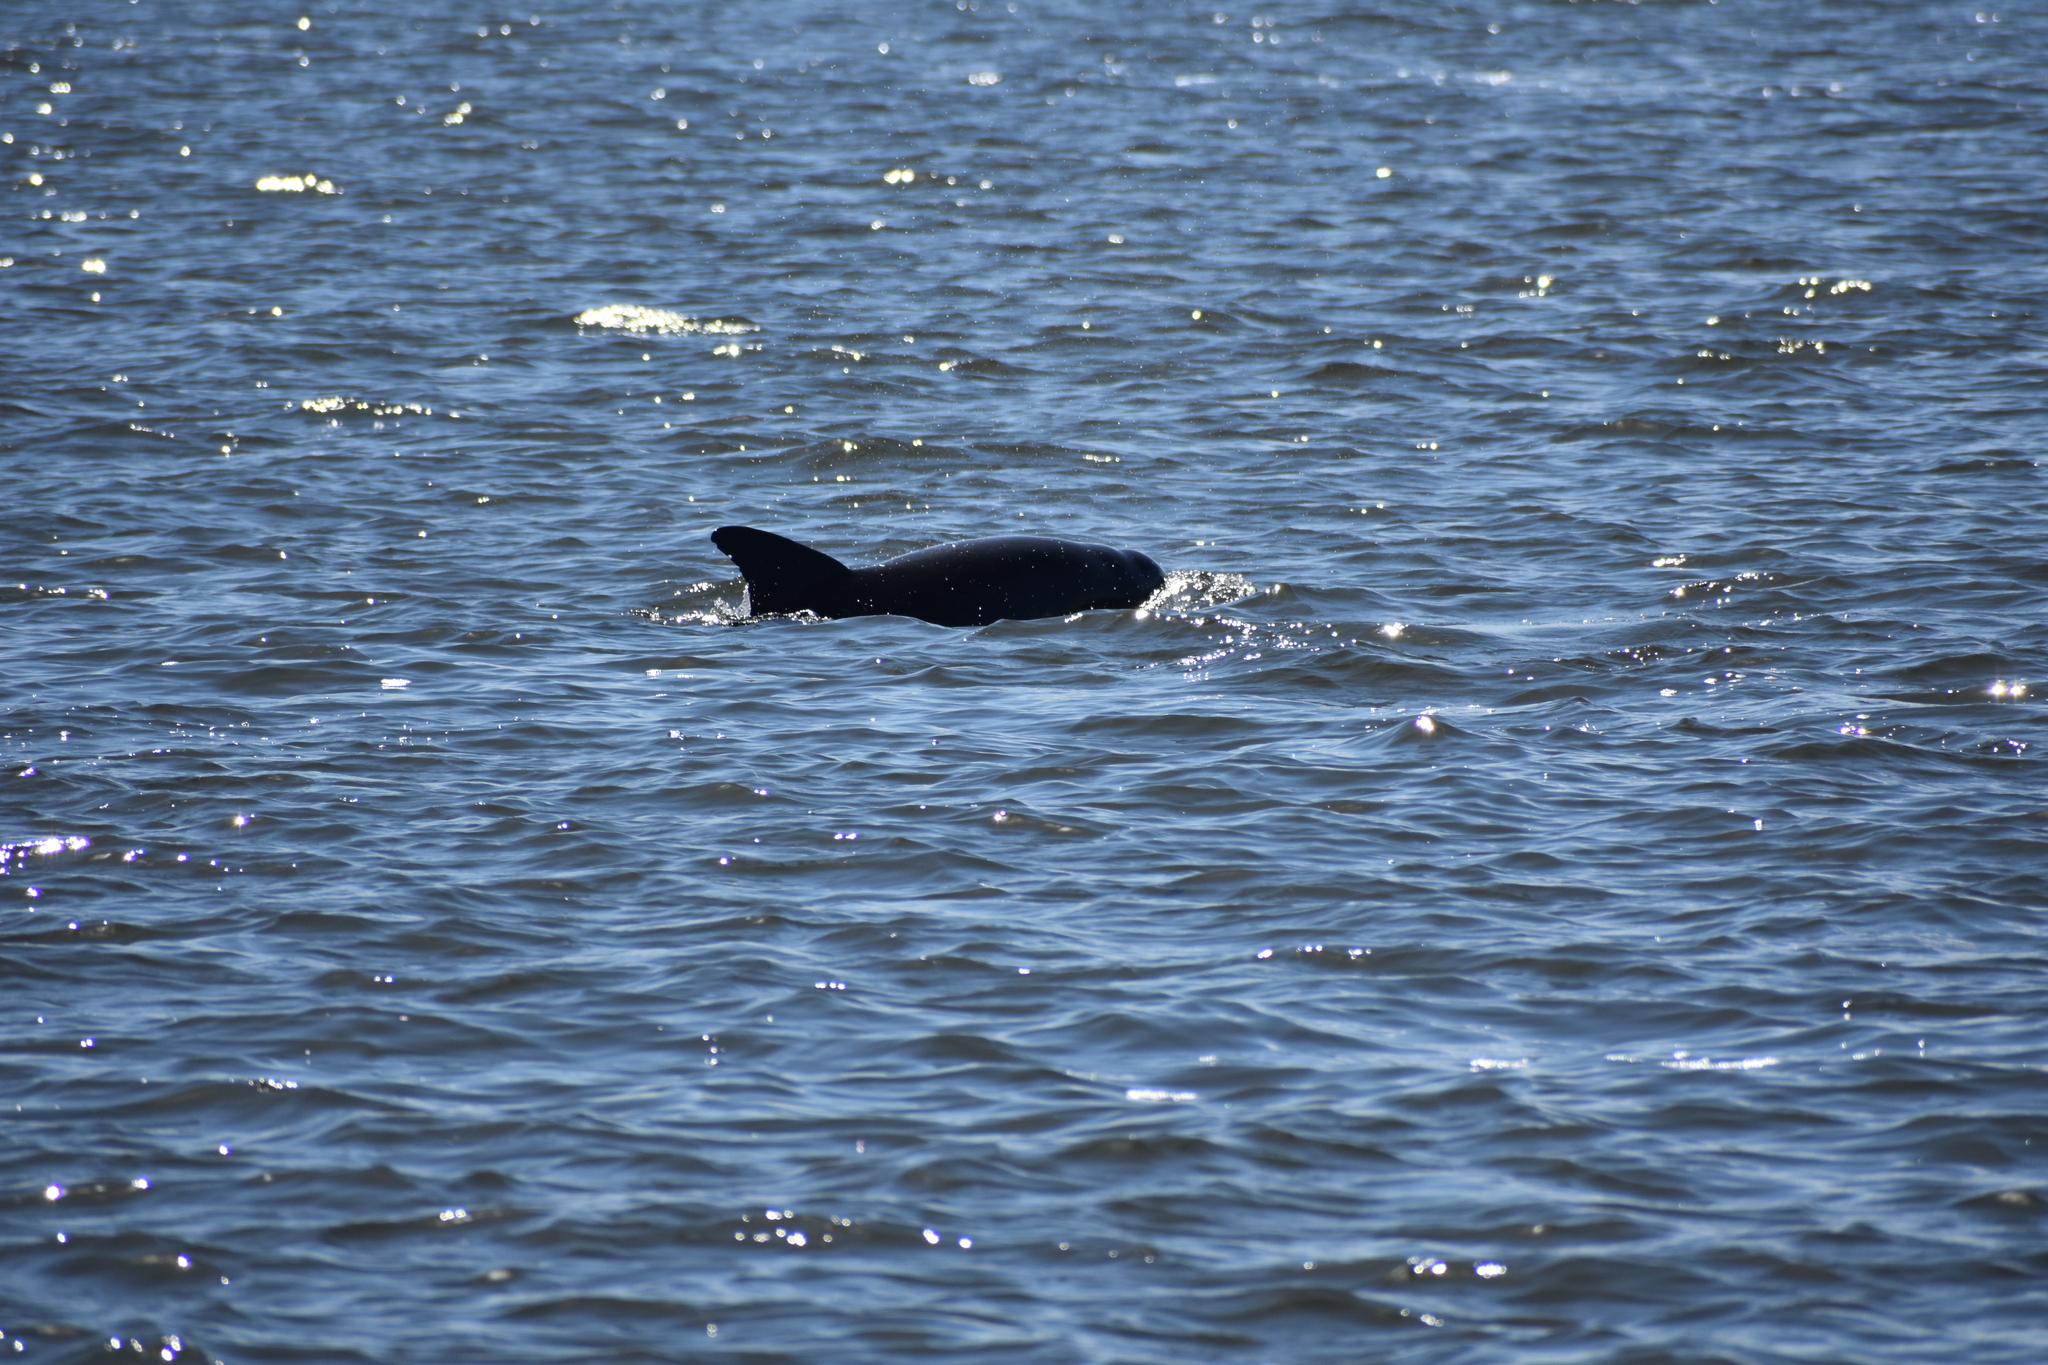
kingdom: Animalia
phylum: Chordata
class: Mammalia
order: Cetacea
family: Delphinidae
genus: Tursiops
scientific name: Tursiops truncatus
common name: Bottlenose dolphin
